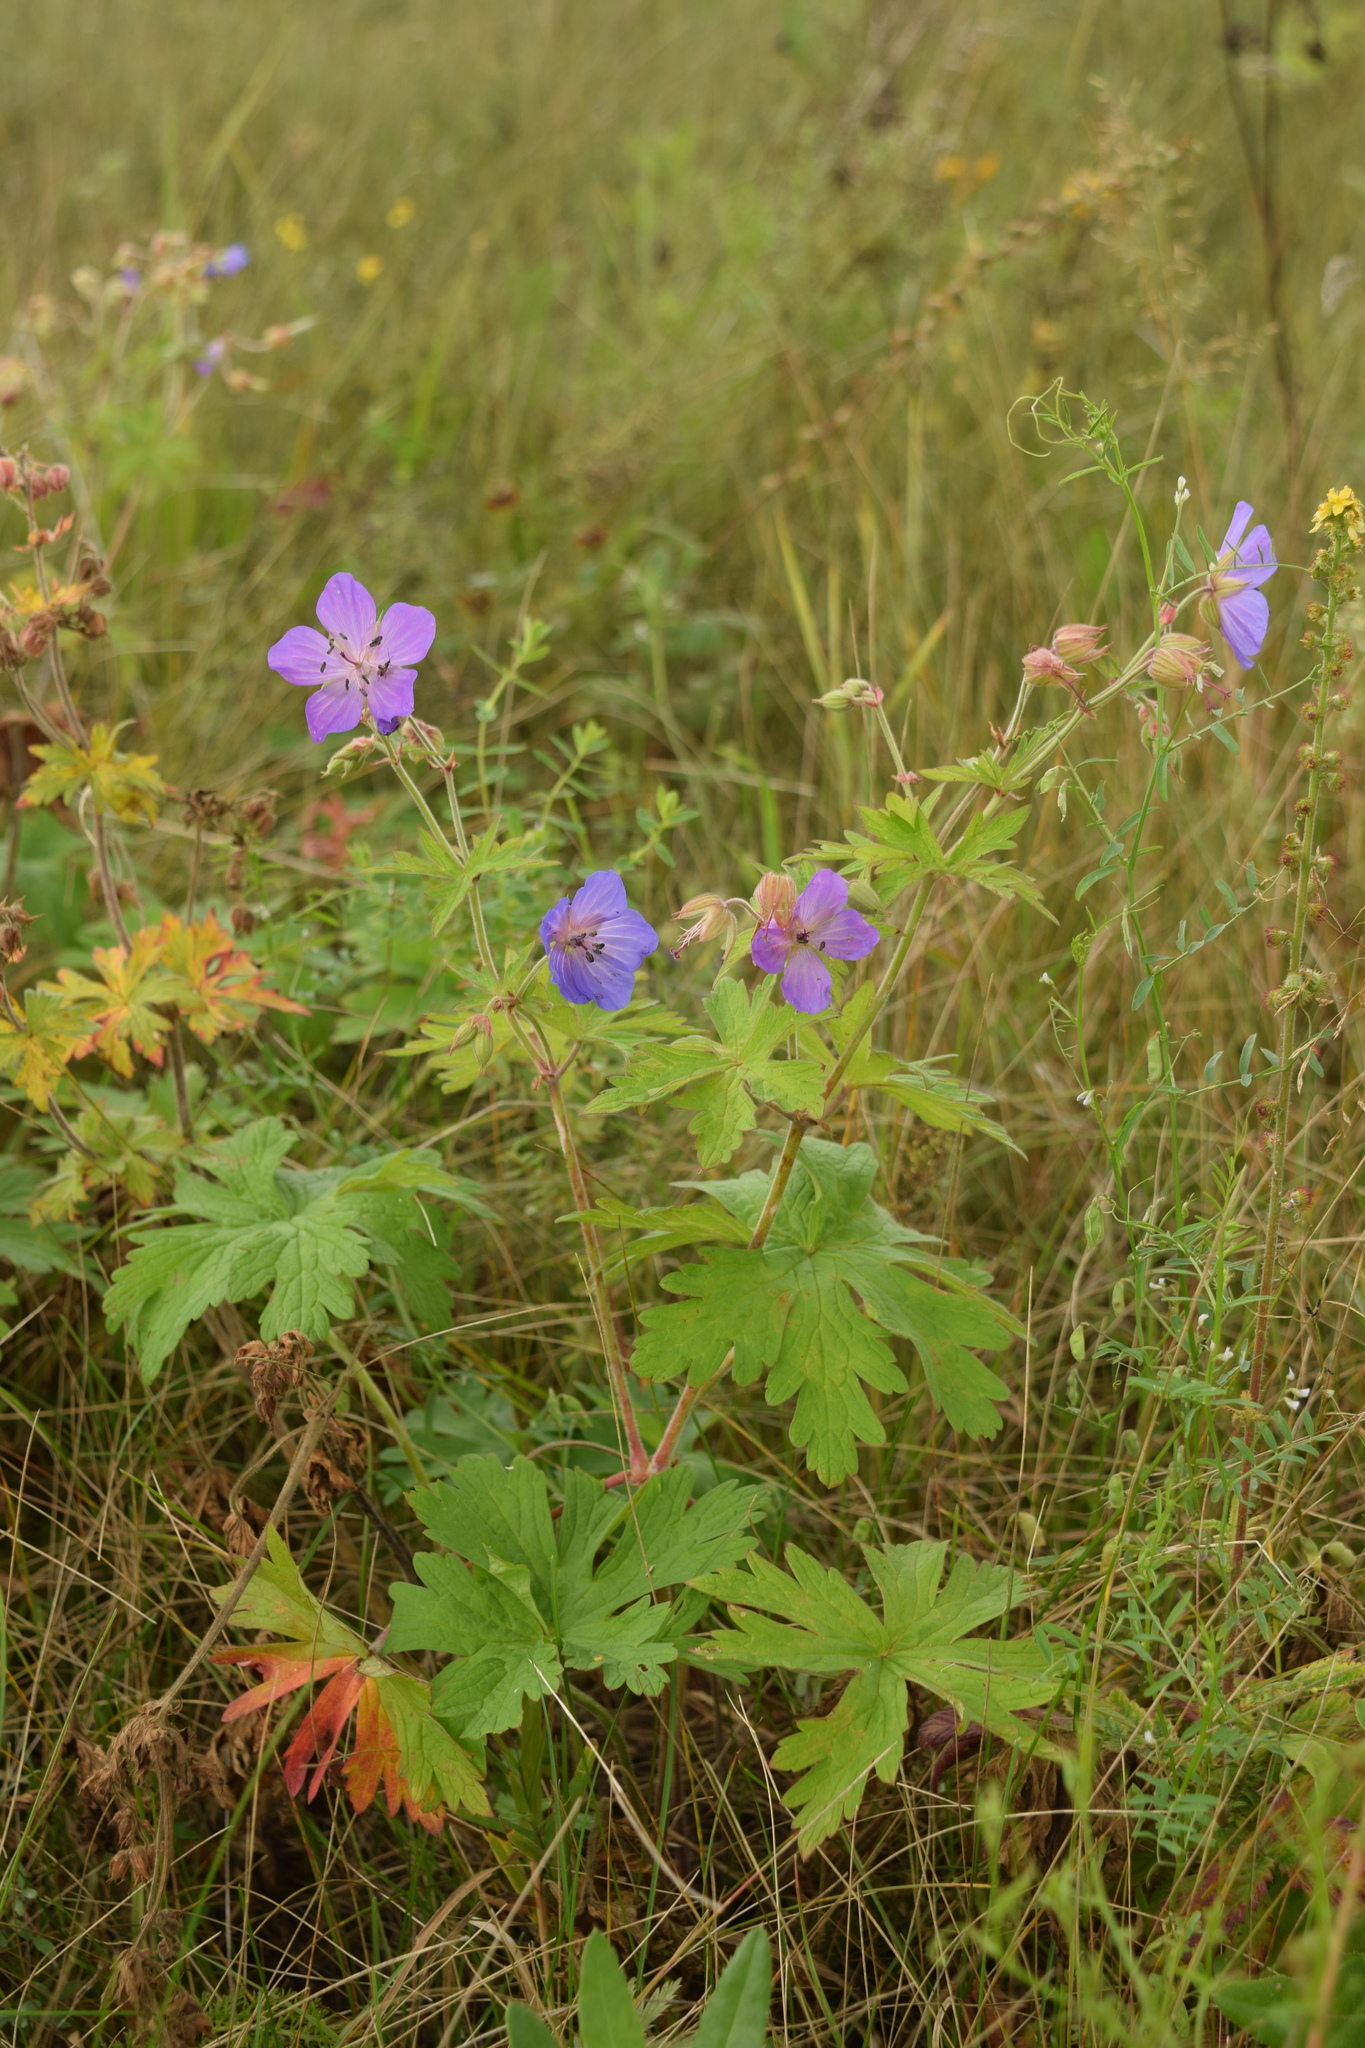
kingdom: Plantae
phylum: Tracheophyta
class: Magnoliopsida
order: Geraniales
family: Geraniaceae
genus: Geranium
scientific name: Geranium pratense
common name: Meadow crane's-bill
